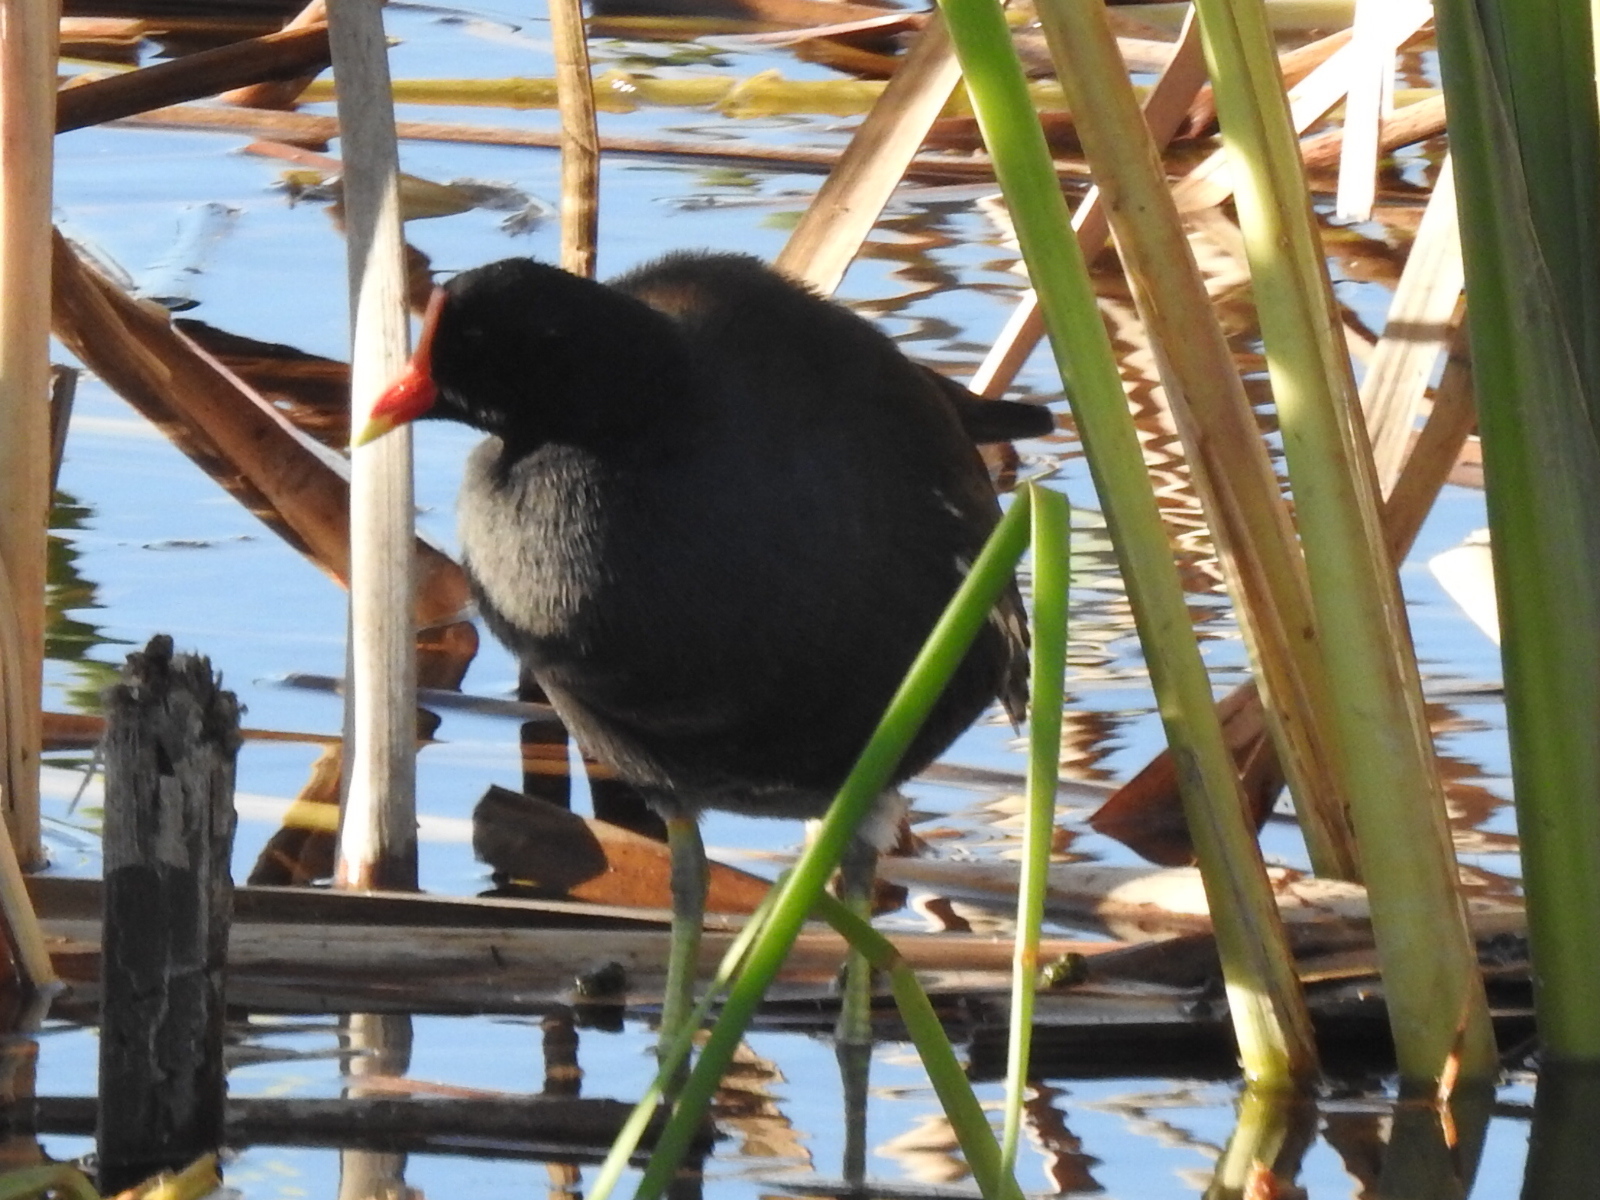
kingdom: Animalia
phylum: Chordata
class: Aves
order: Gruiformes
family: Rallidae
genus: Gallinula
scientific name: Gallinula chloropus
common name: Common moorhen
